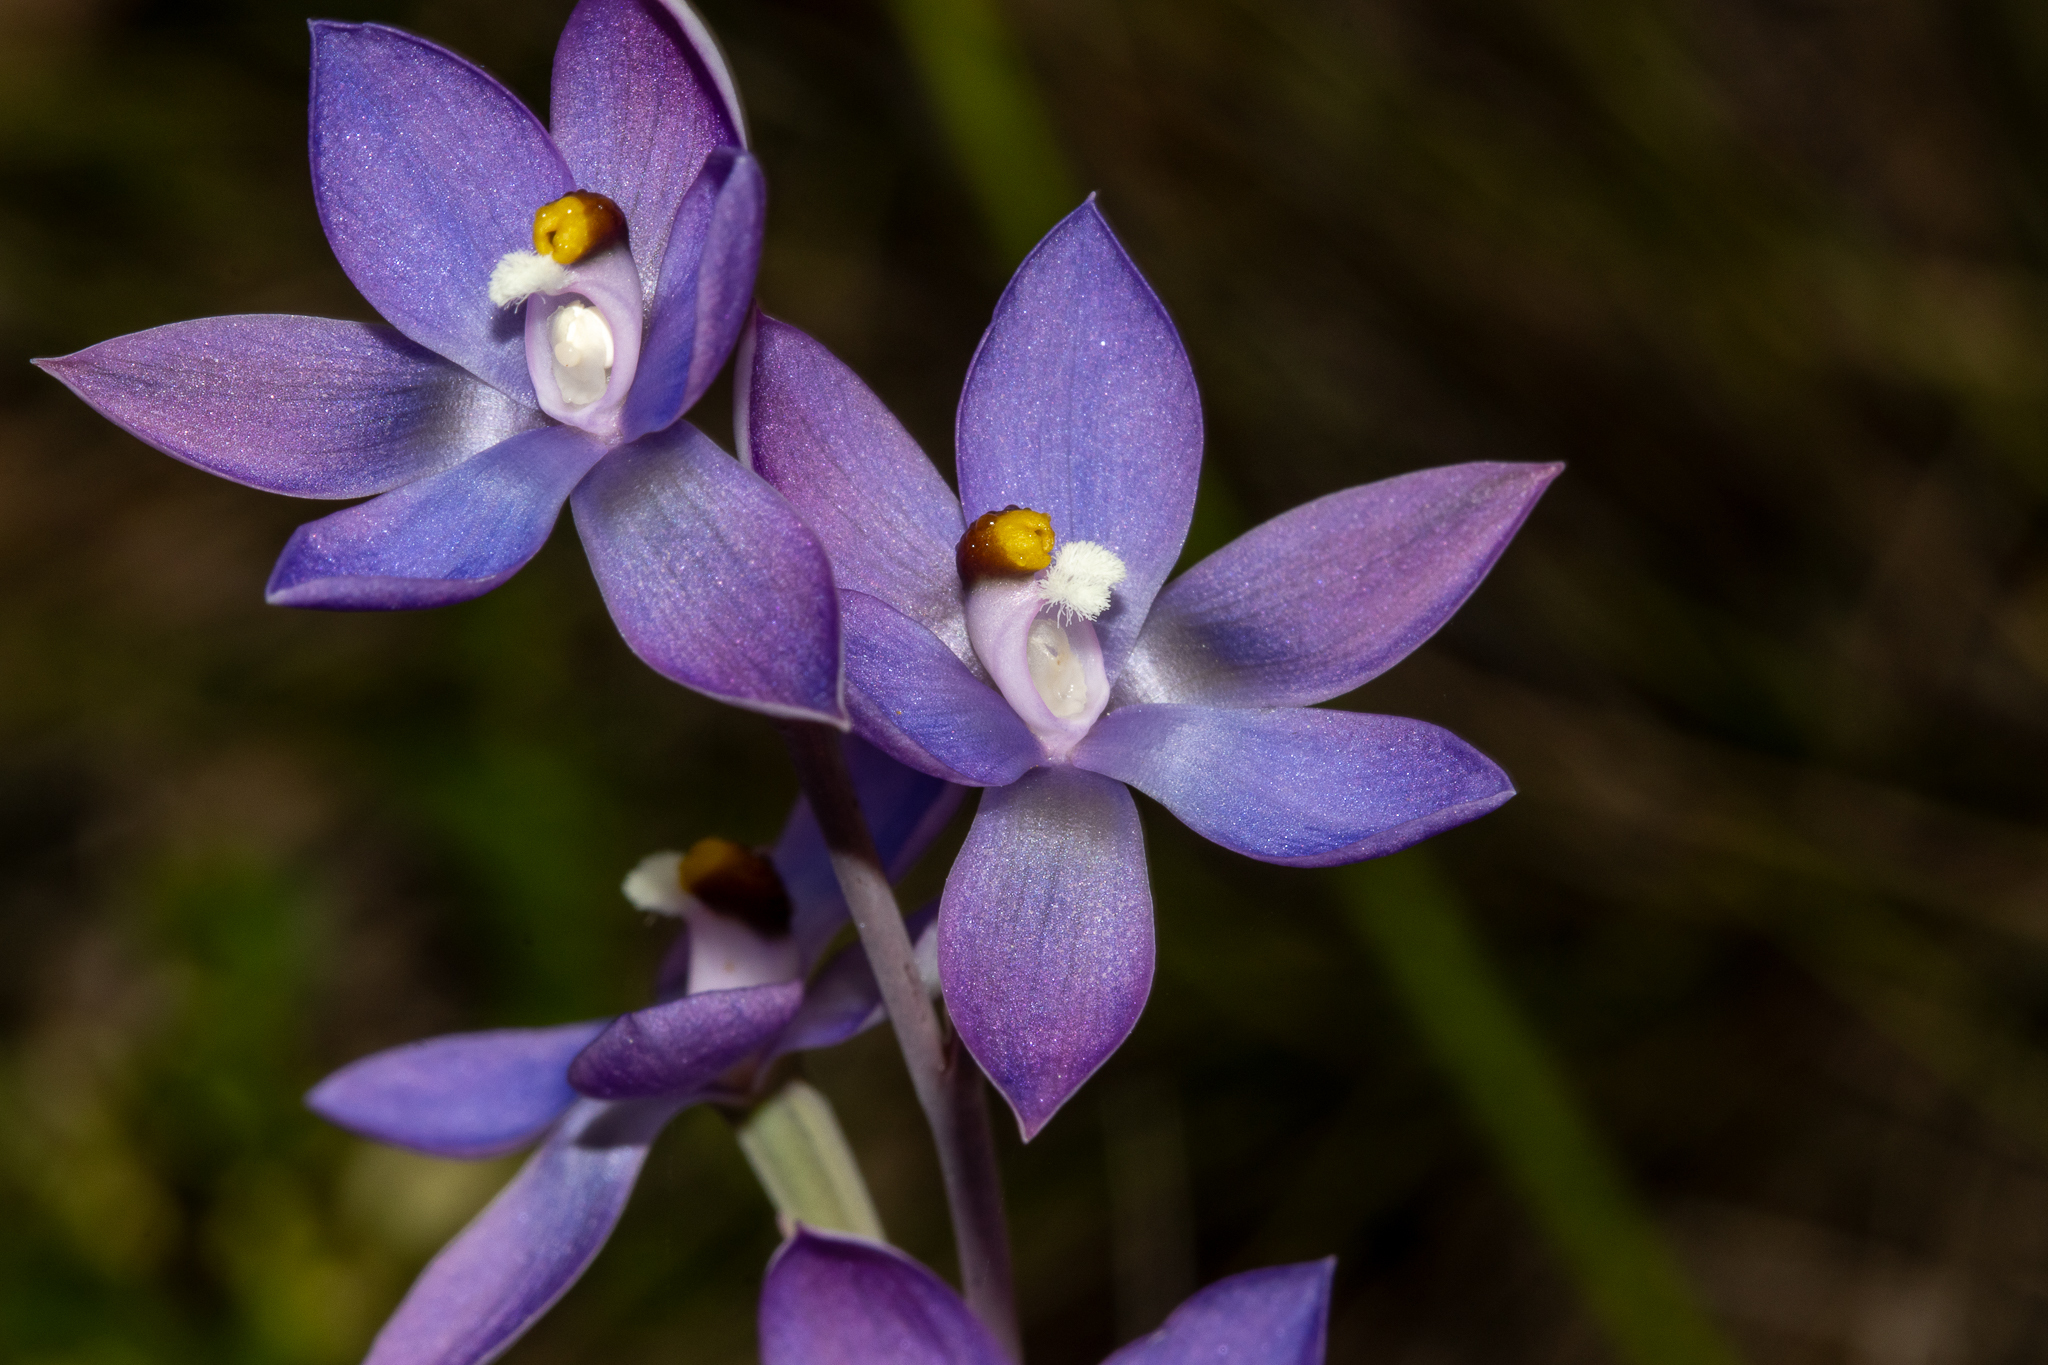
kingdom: Plantae
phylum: Tracheophyta
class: Liliopsida
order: Asparagales
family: Orchidaceae
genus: Thelymitra
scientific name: Thelymitra megcalyptra
